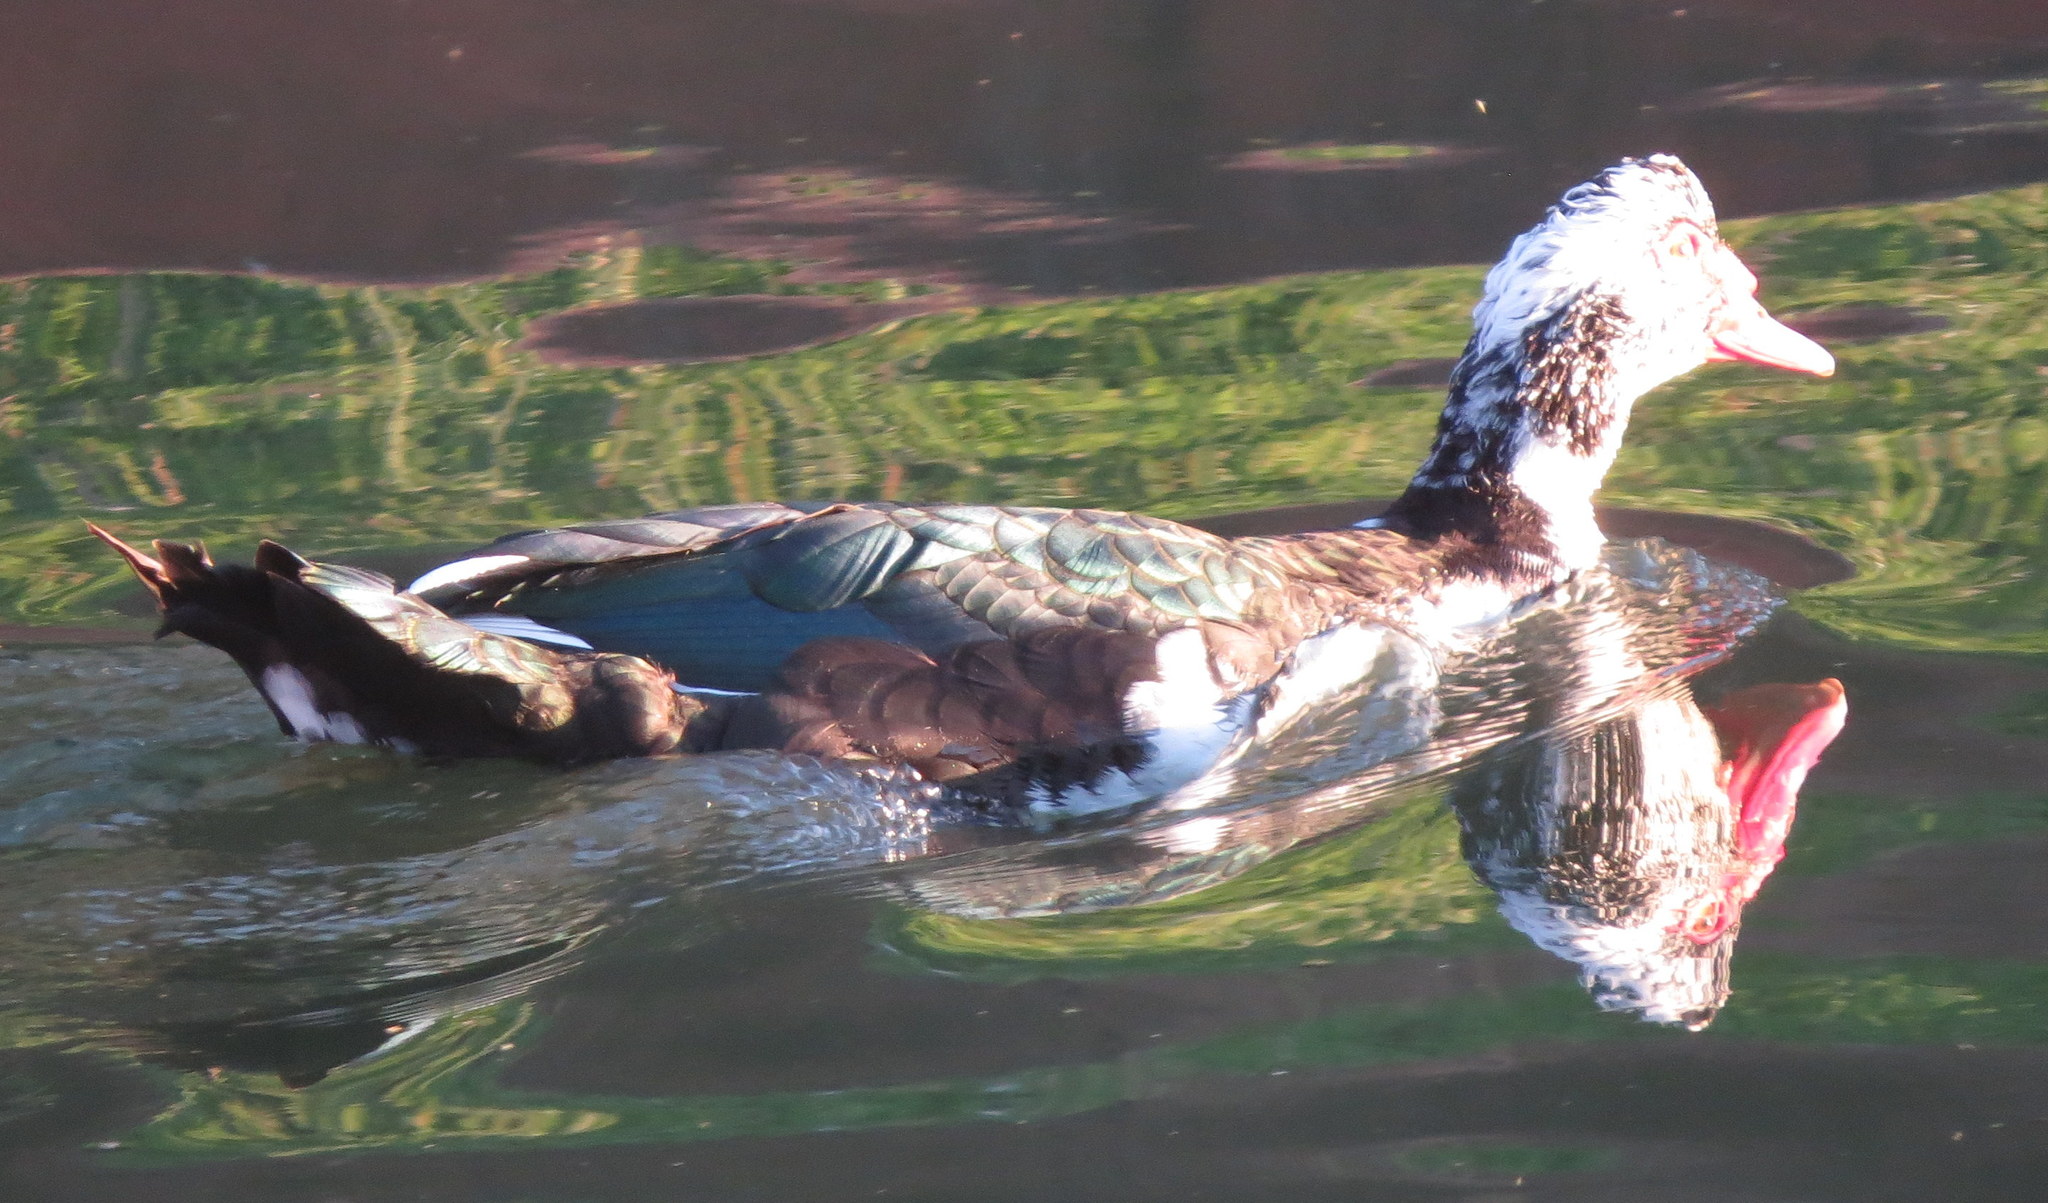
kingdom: Animalia
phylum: Chordata
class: Aves
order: Anseriformes
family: Anatidae
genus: Cairina
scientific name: Cairina moschata
